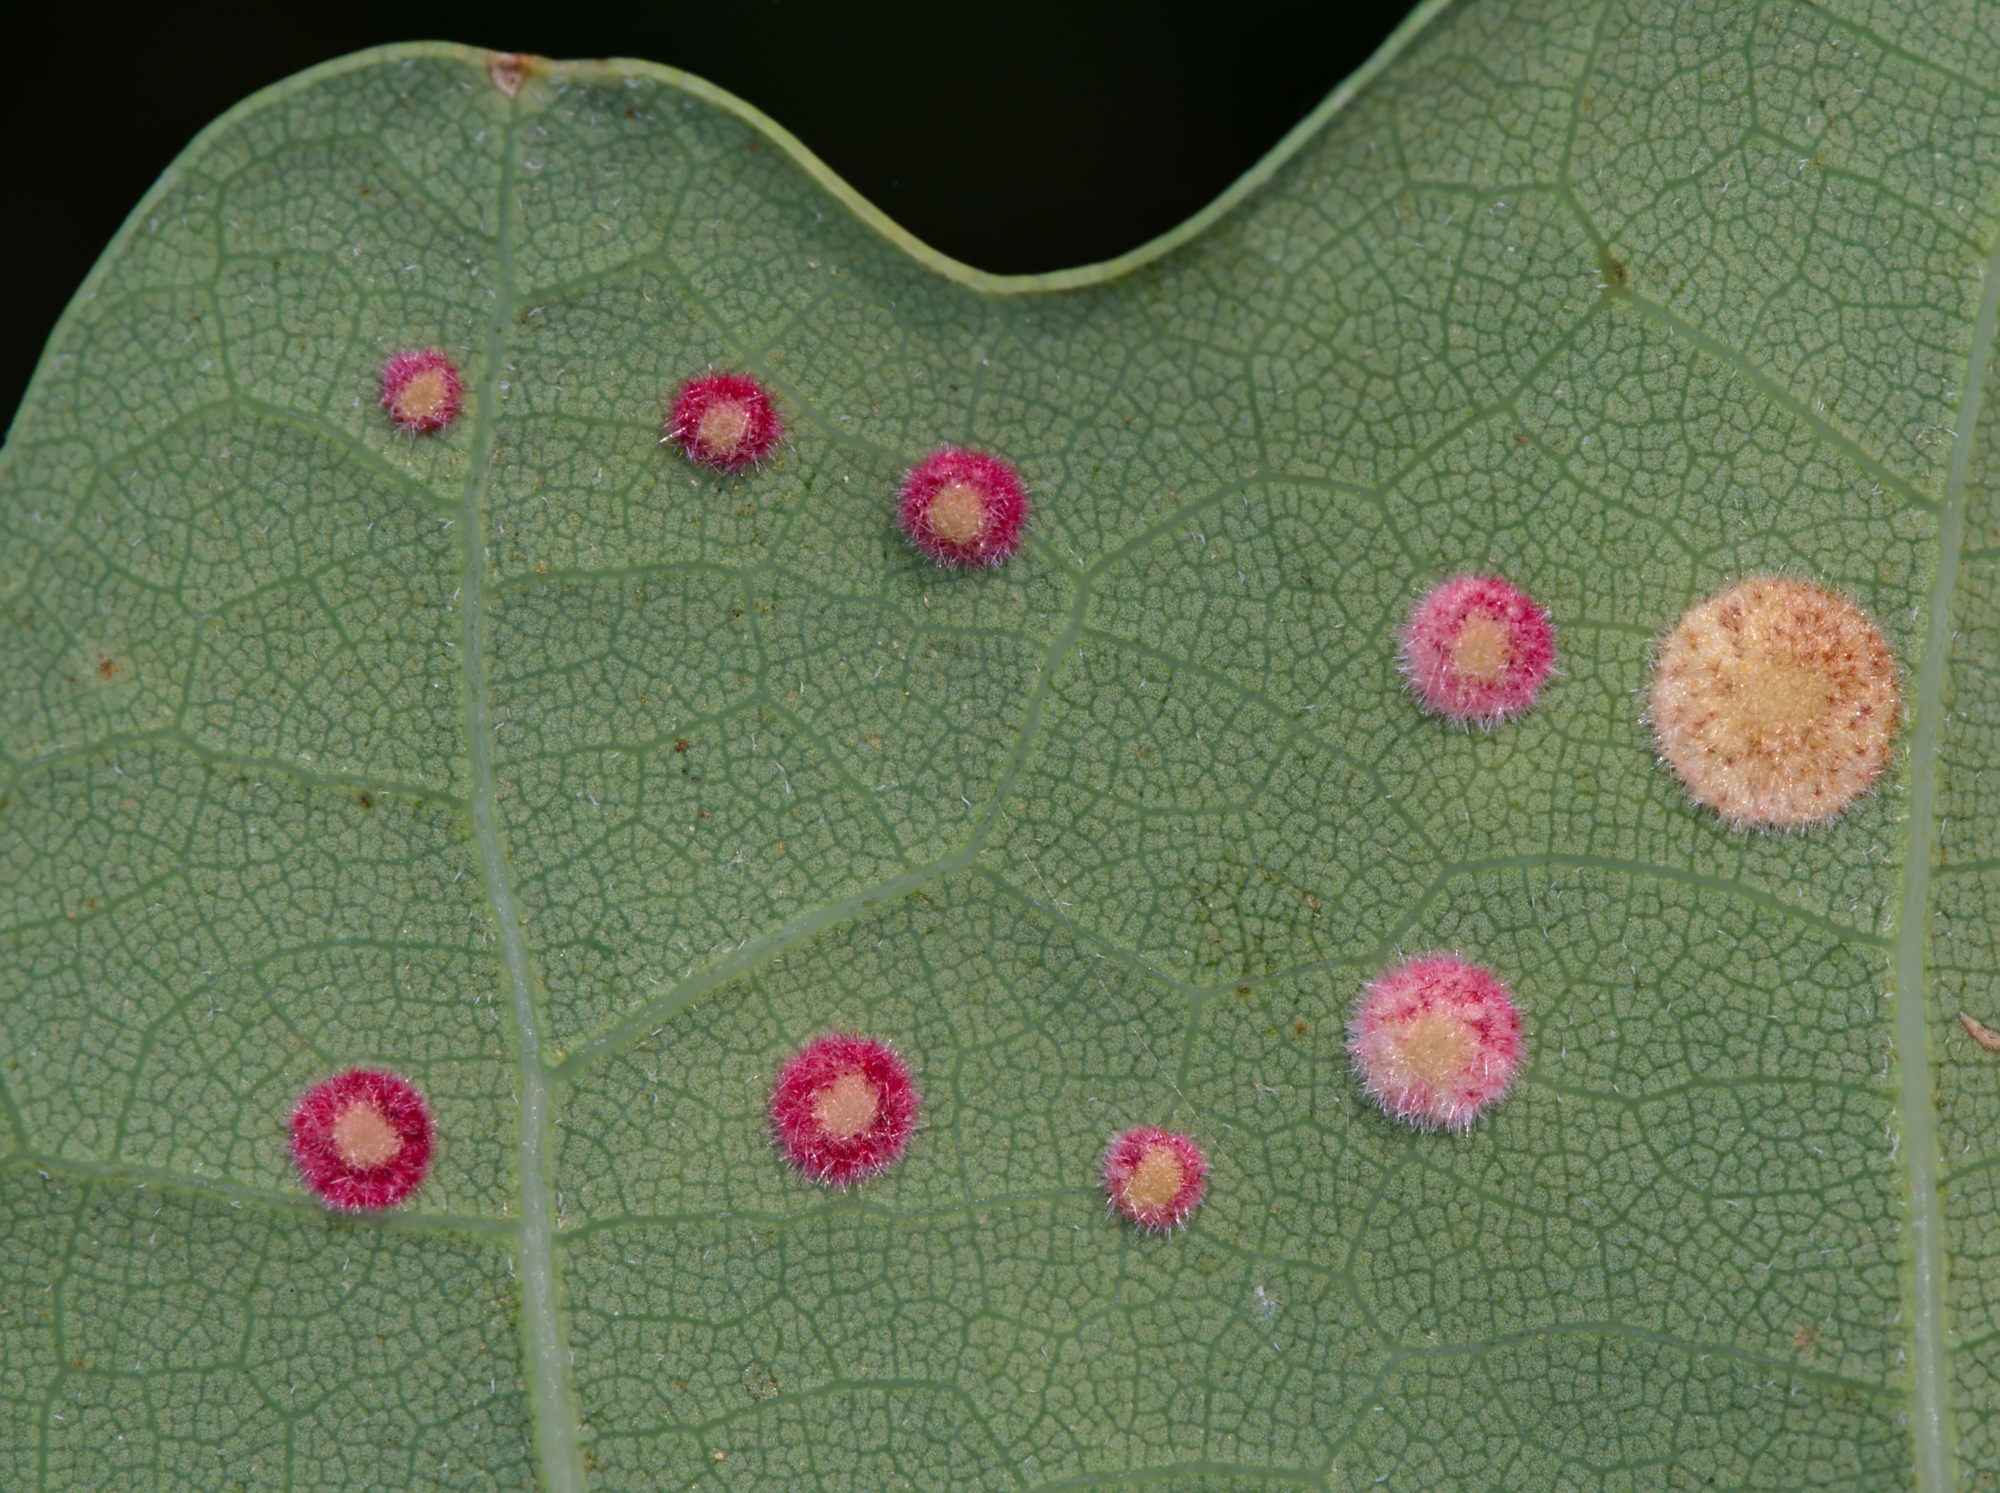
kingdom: Animalia
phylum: Arthropoda
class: Insecta
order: Hymenoptera
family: Cynipidae
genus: Neuroterus
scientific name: Neuroterus quercusbaccarum
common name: Common spangle gall
